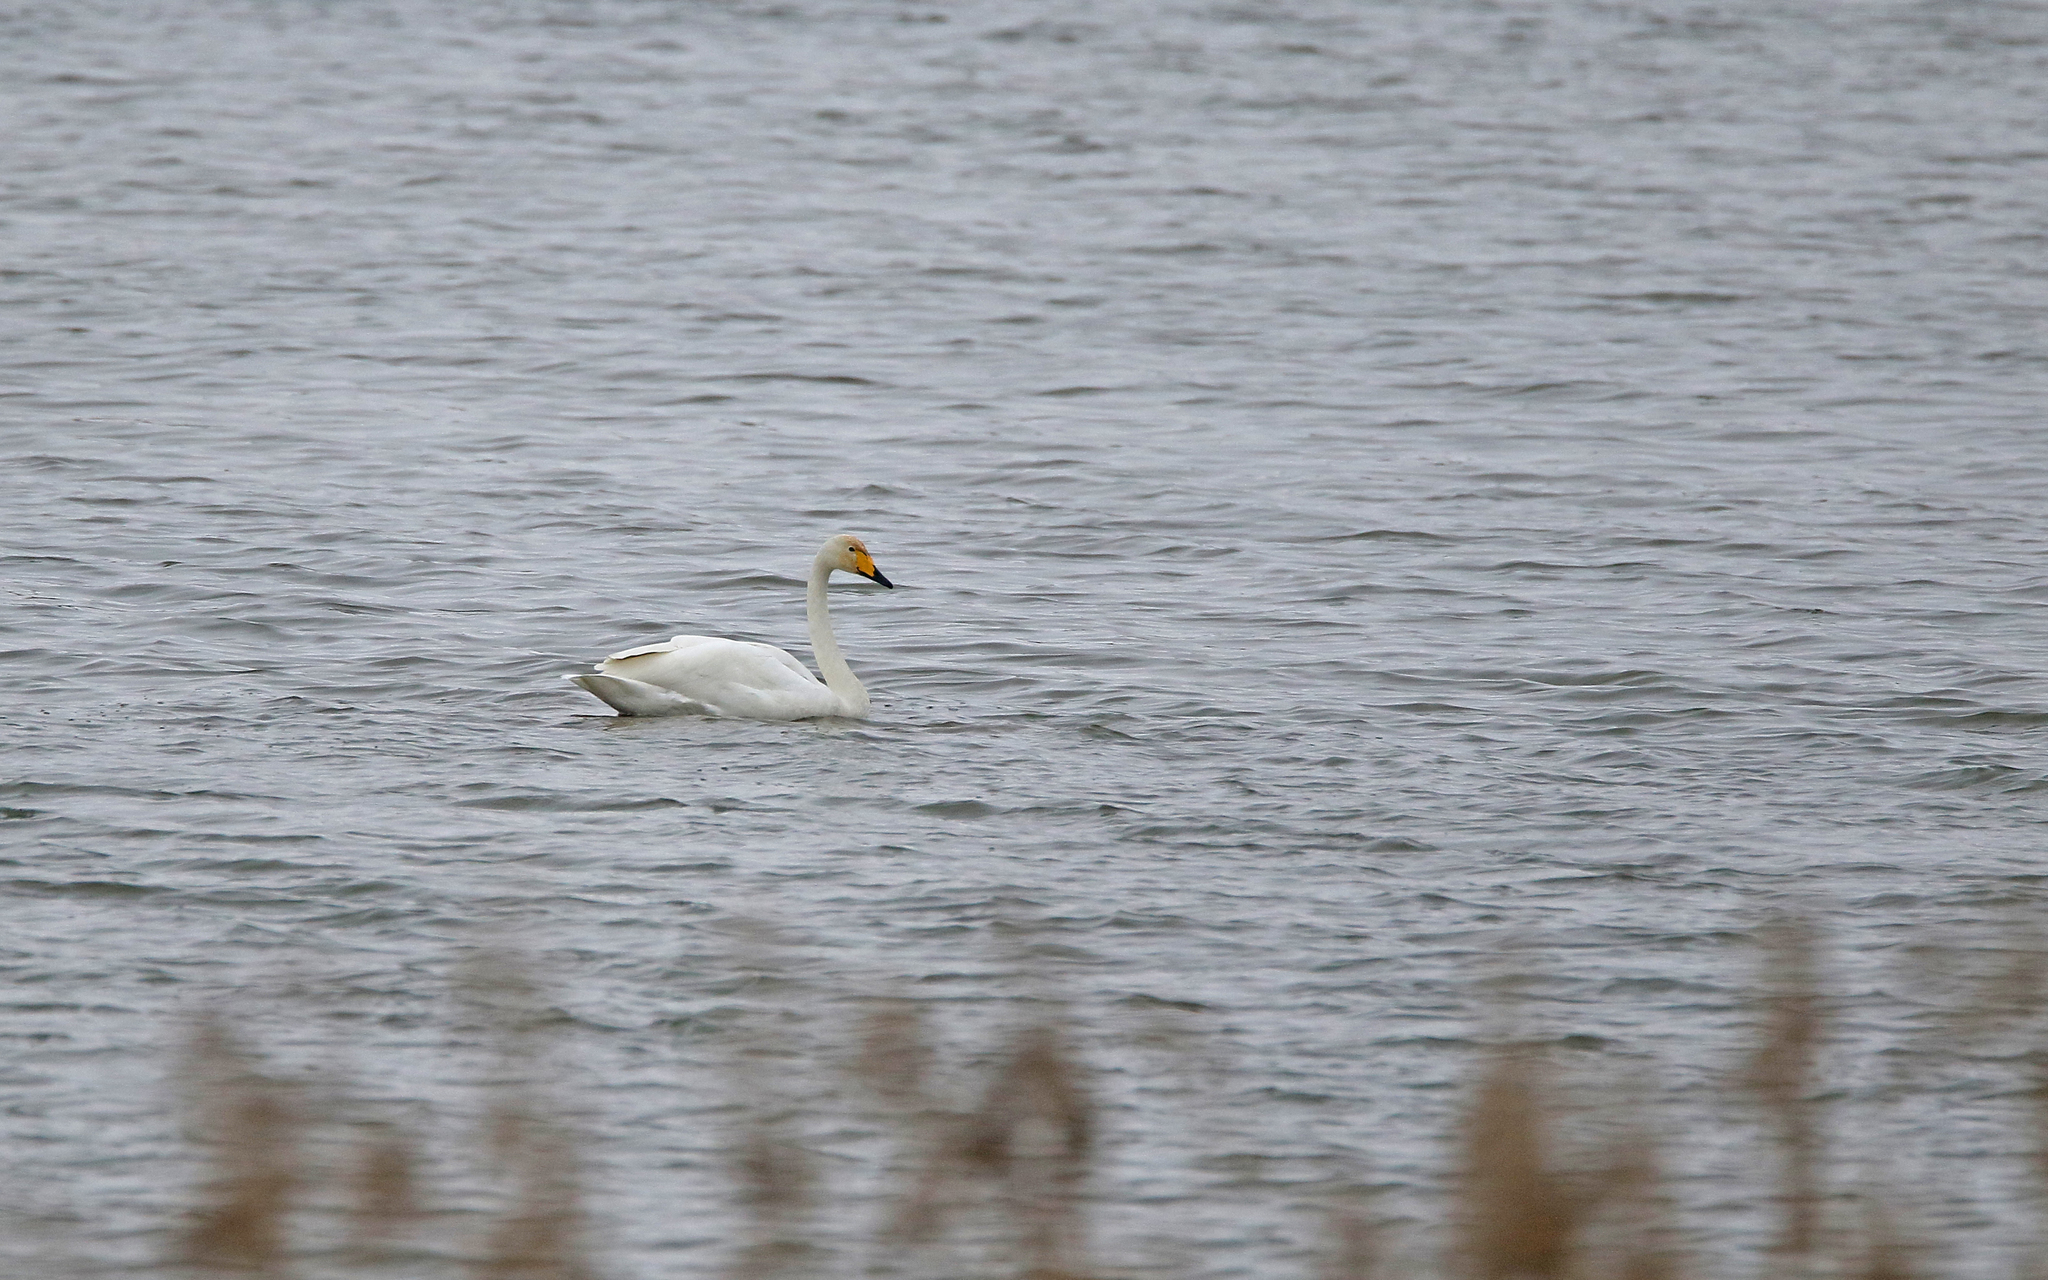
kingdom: Animalia
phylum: Chordata
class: Aves
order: Anseriformes
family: Anatidae
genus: Cygnus
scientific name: Cygnus cygnus
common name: Whooper swan
